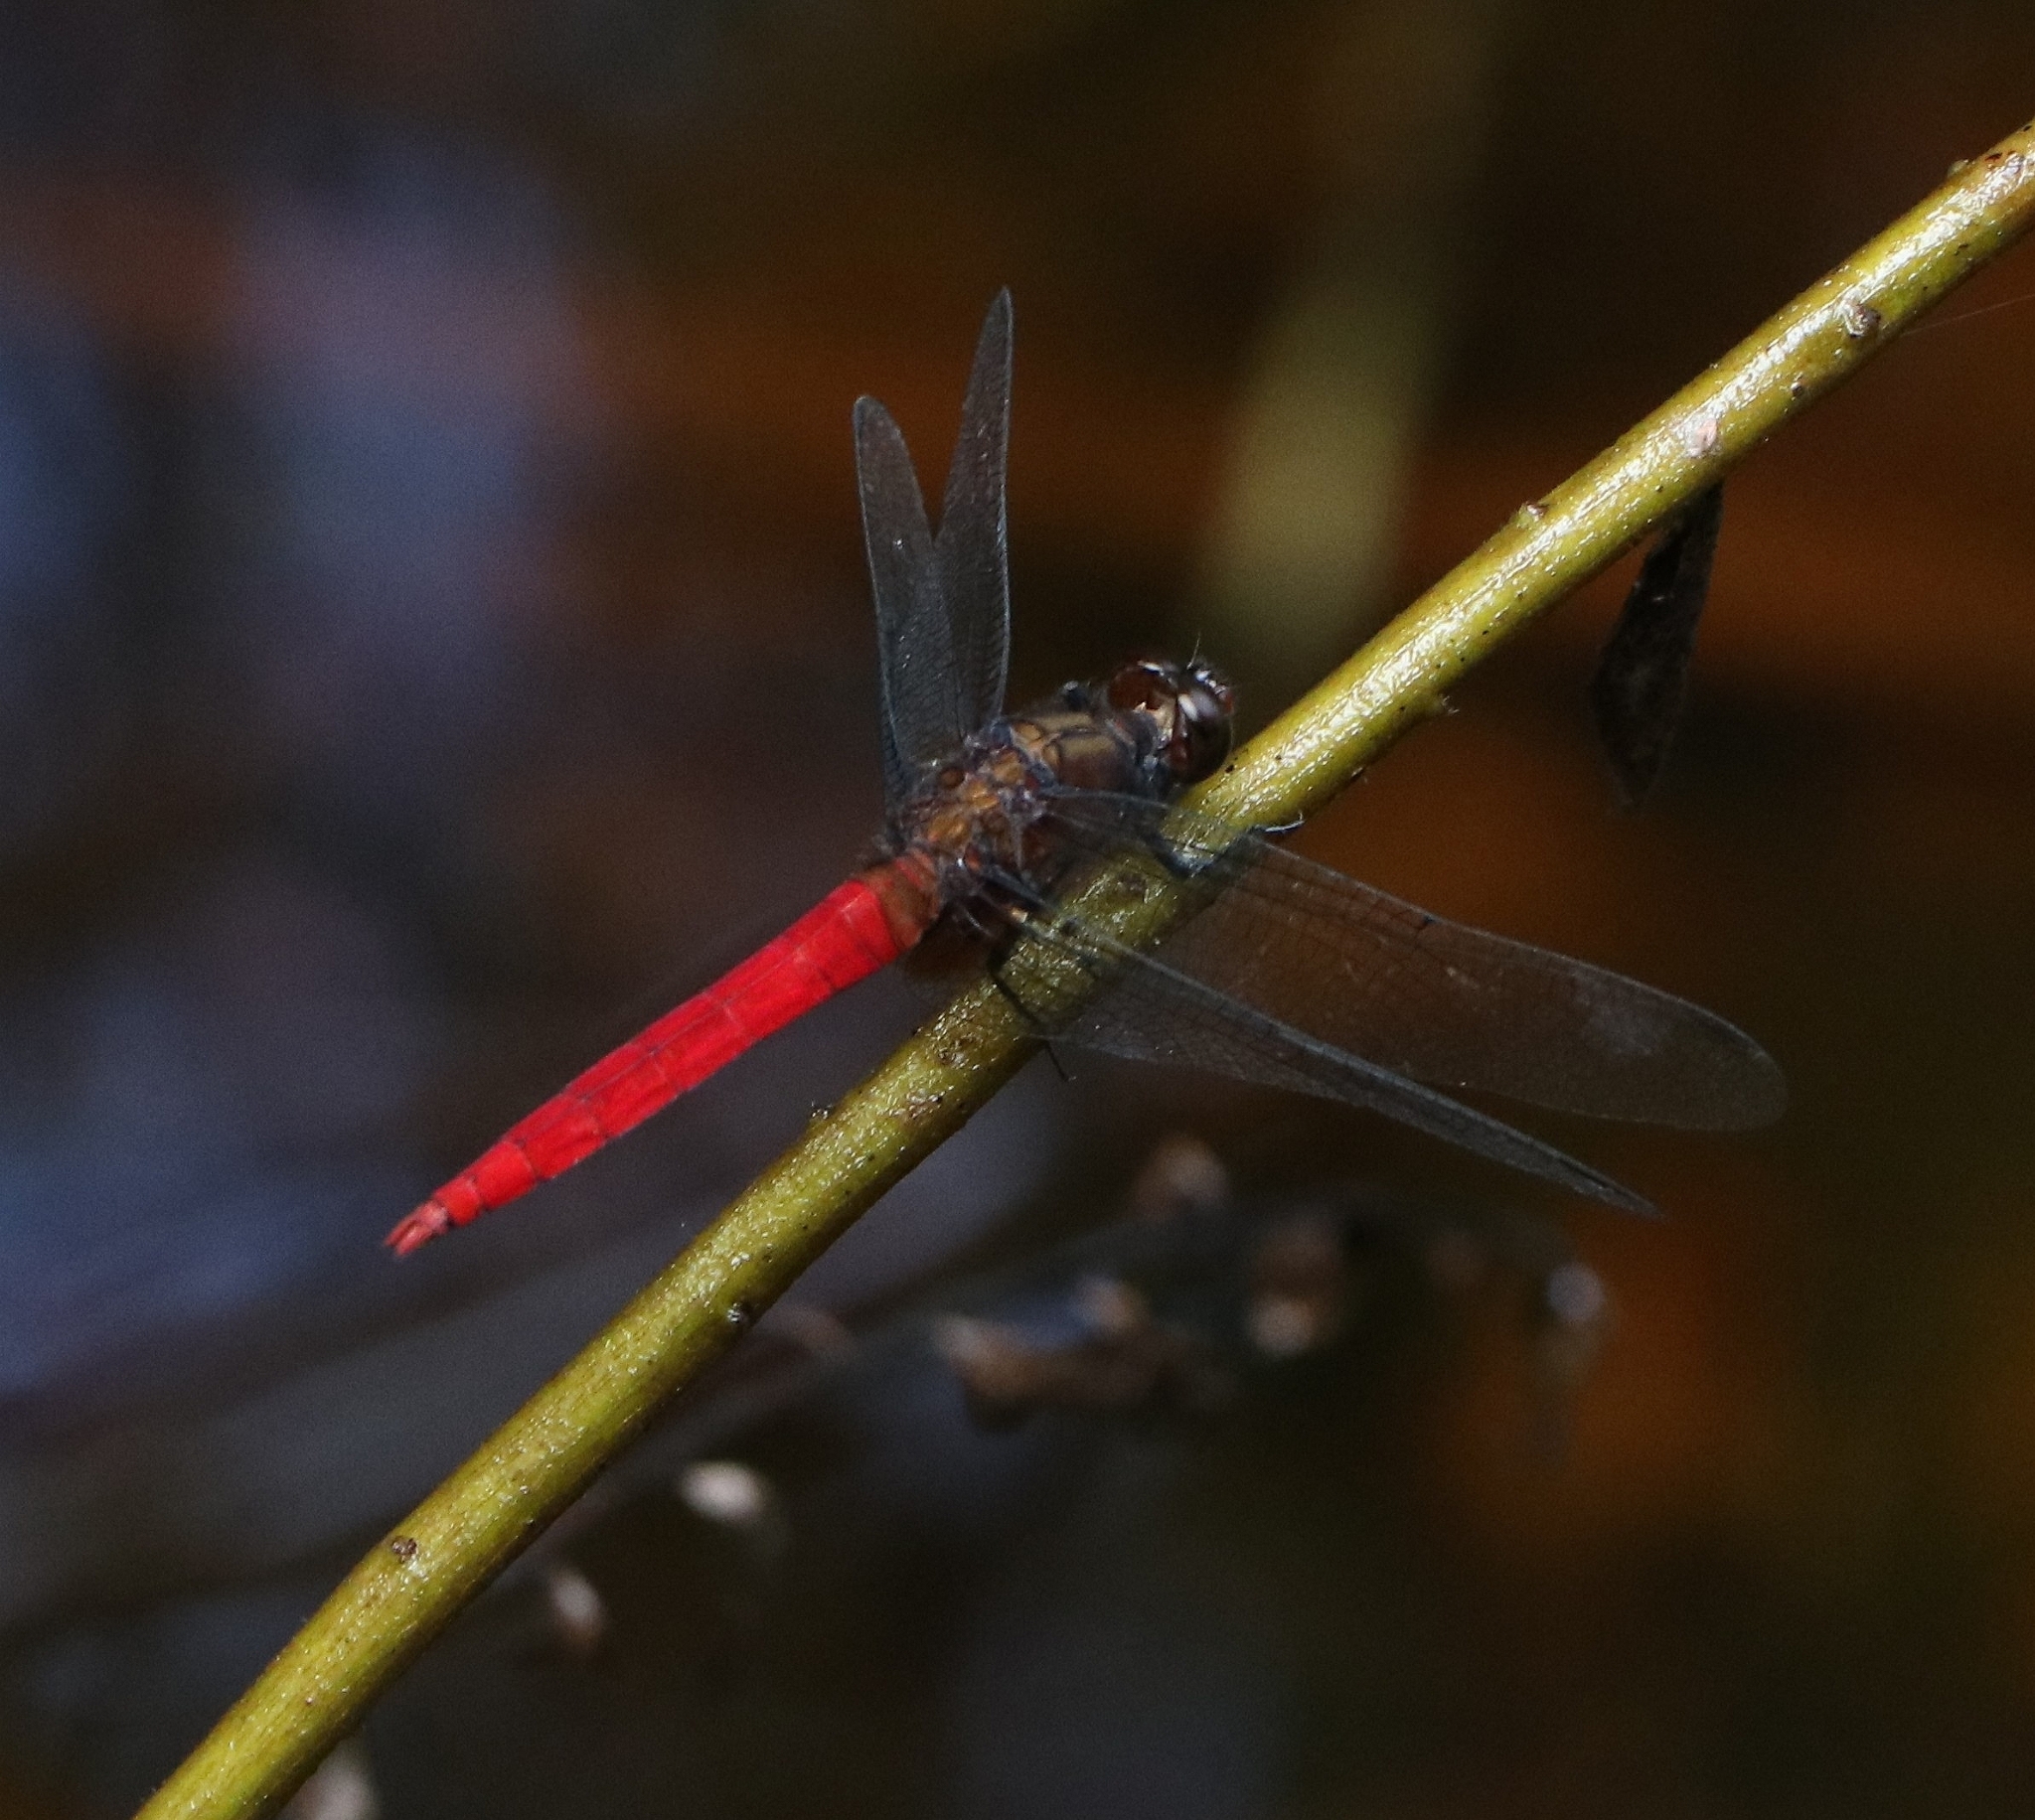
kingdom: Animalia
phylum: Arthropoda
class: Insecta
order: Odonata
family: Libellulidae
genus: Orthetrum
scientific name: Orthetrum chrysis
